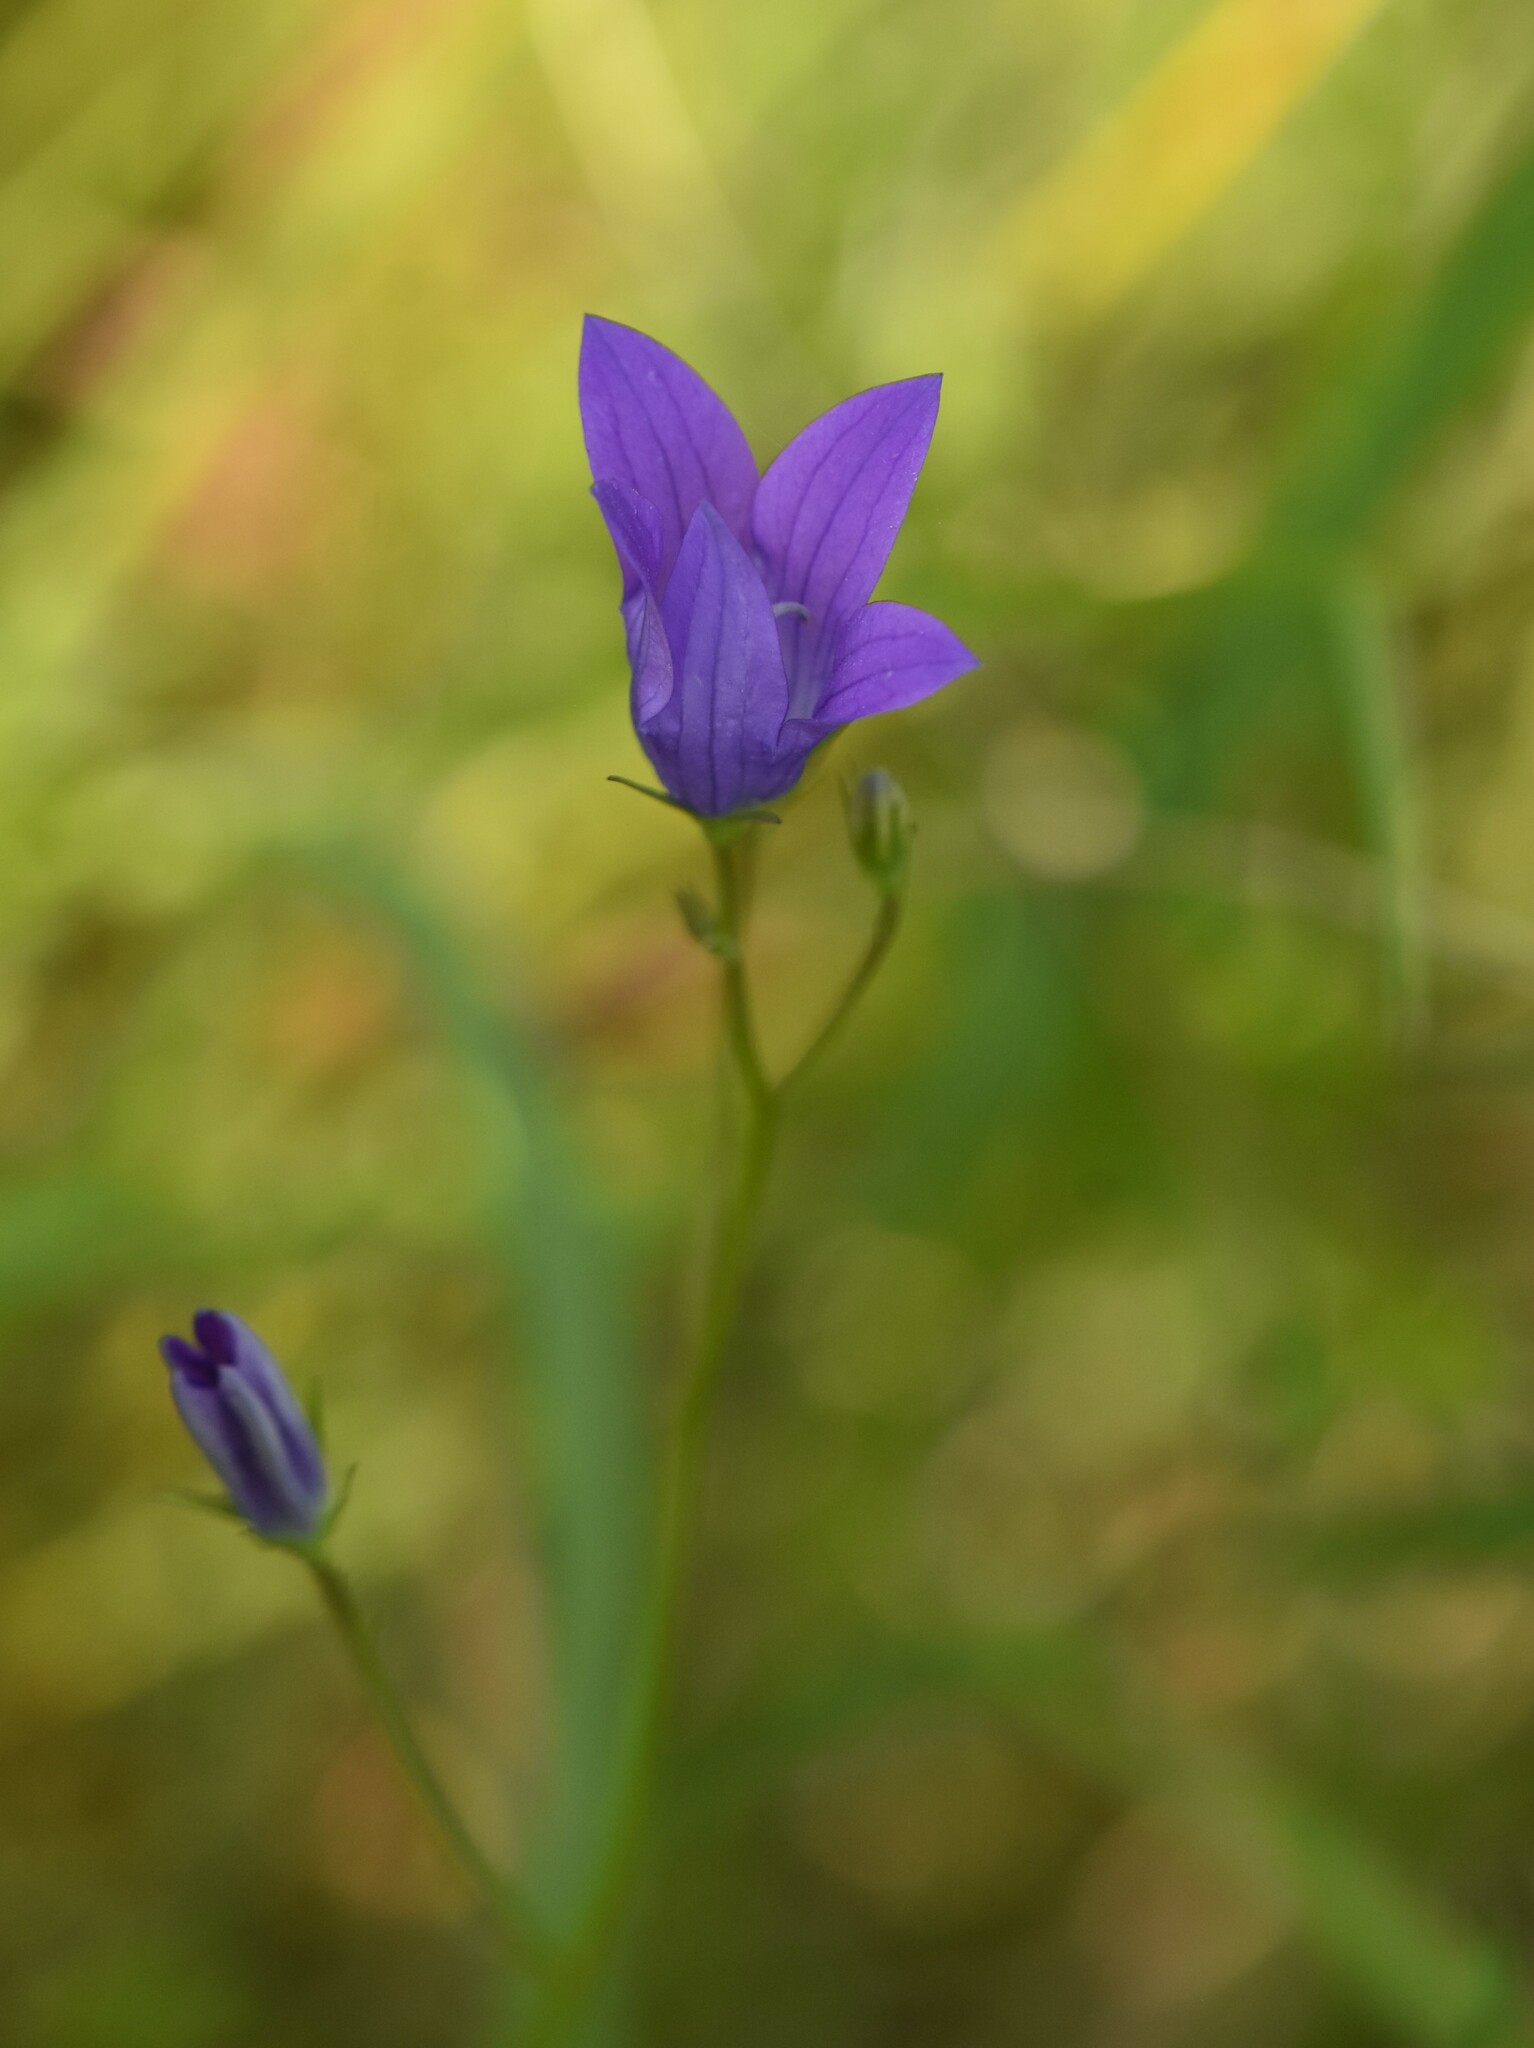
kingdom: Plantae
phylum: Tracheophyta
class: Magnoliopsida
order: Asterales
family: Campanulaceae
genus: Campanula
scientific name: Campanula patula
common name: Spreading bellflower
